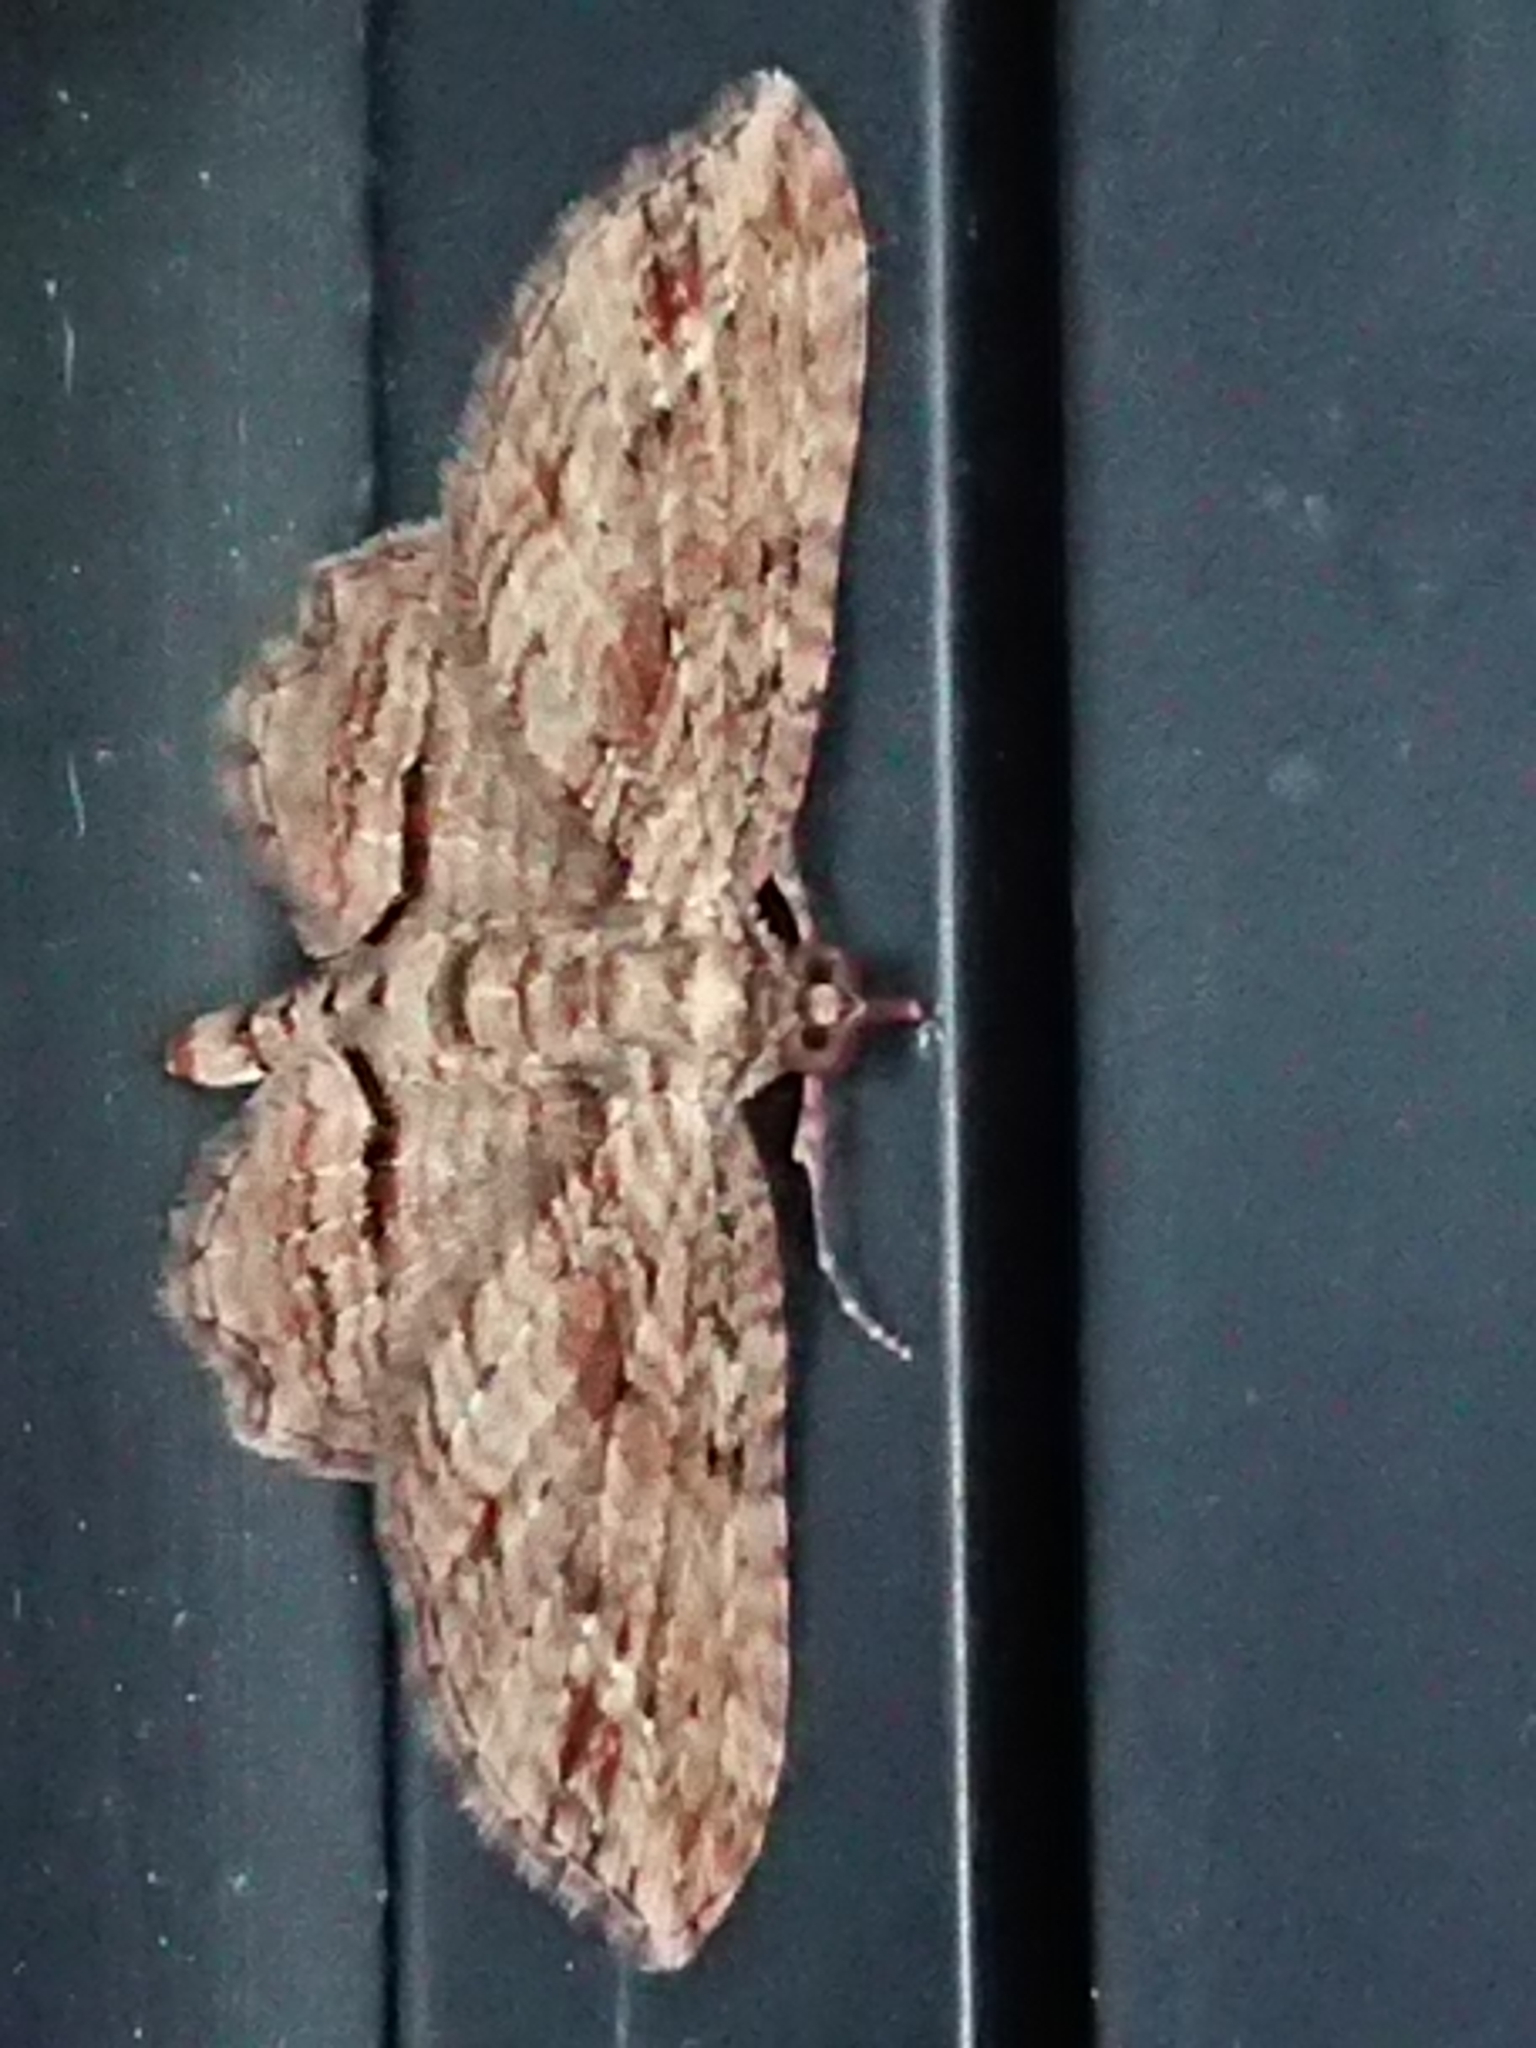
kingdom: Animalia
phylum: Arthropoda
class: Insecta
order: Lepidoptera
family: Geometridae
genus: Chloroclystis
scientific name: Chloroclystis filata
